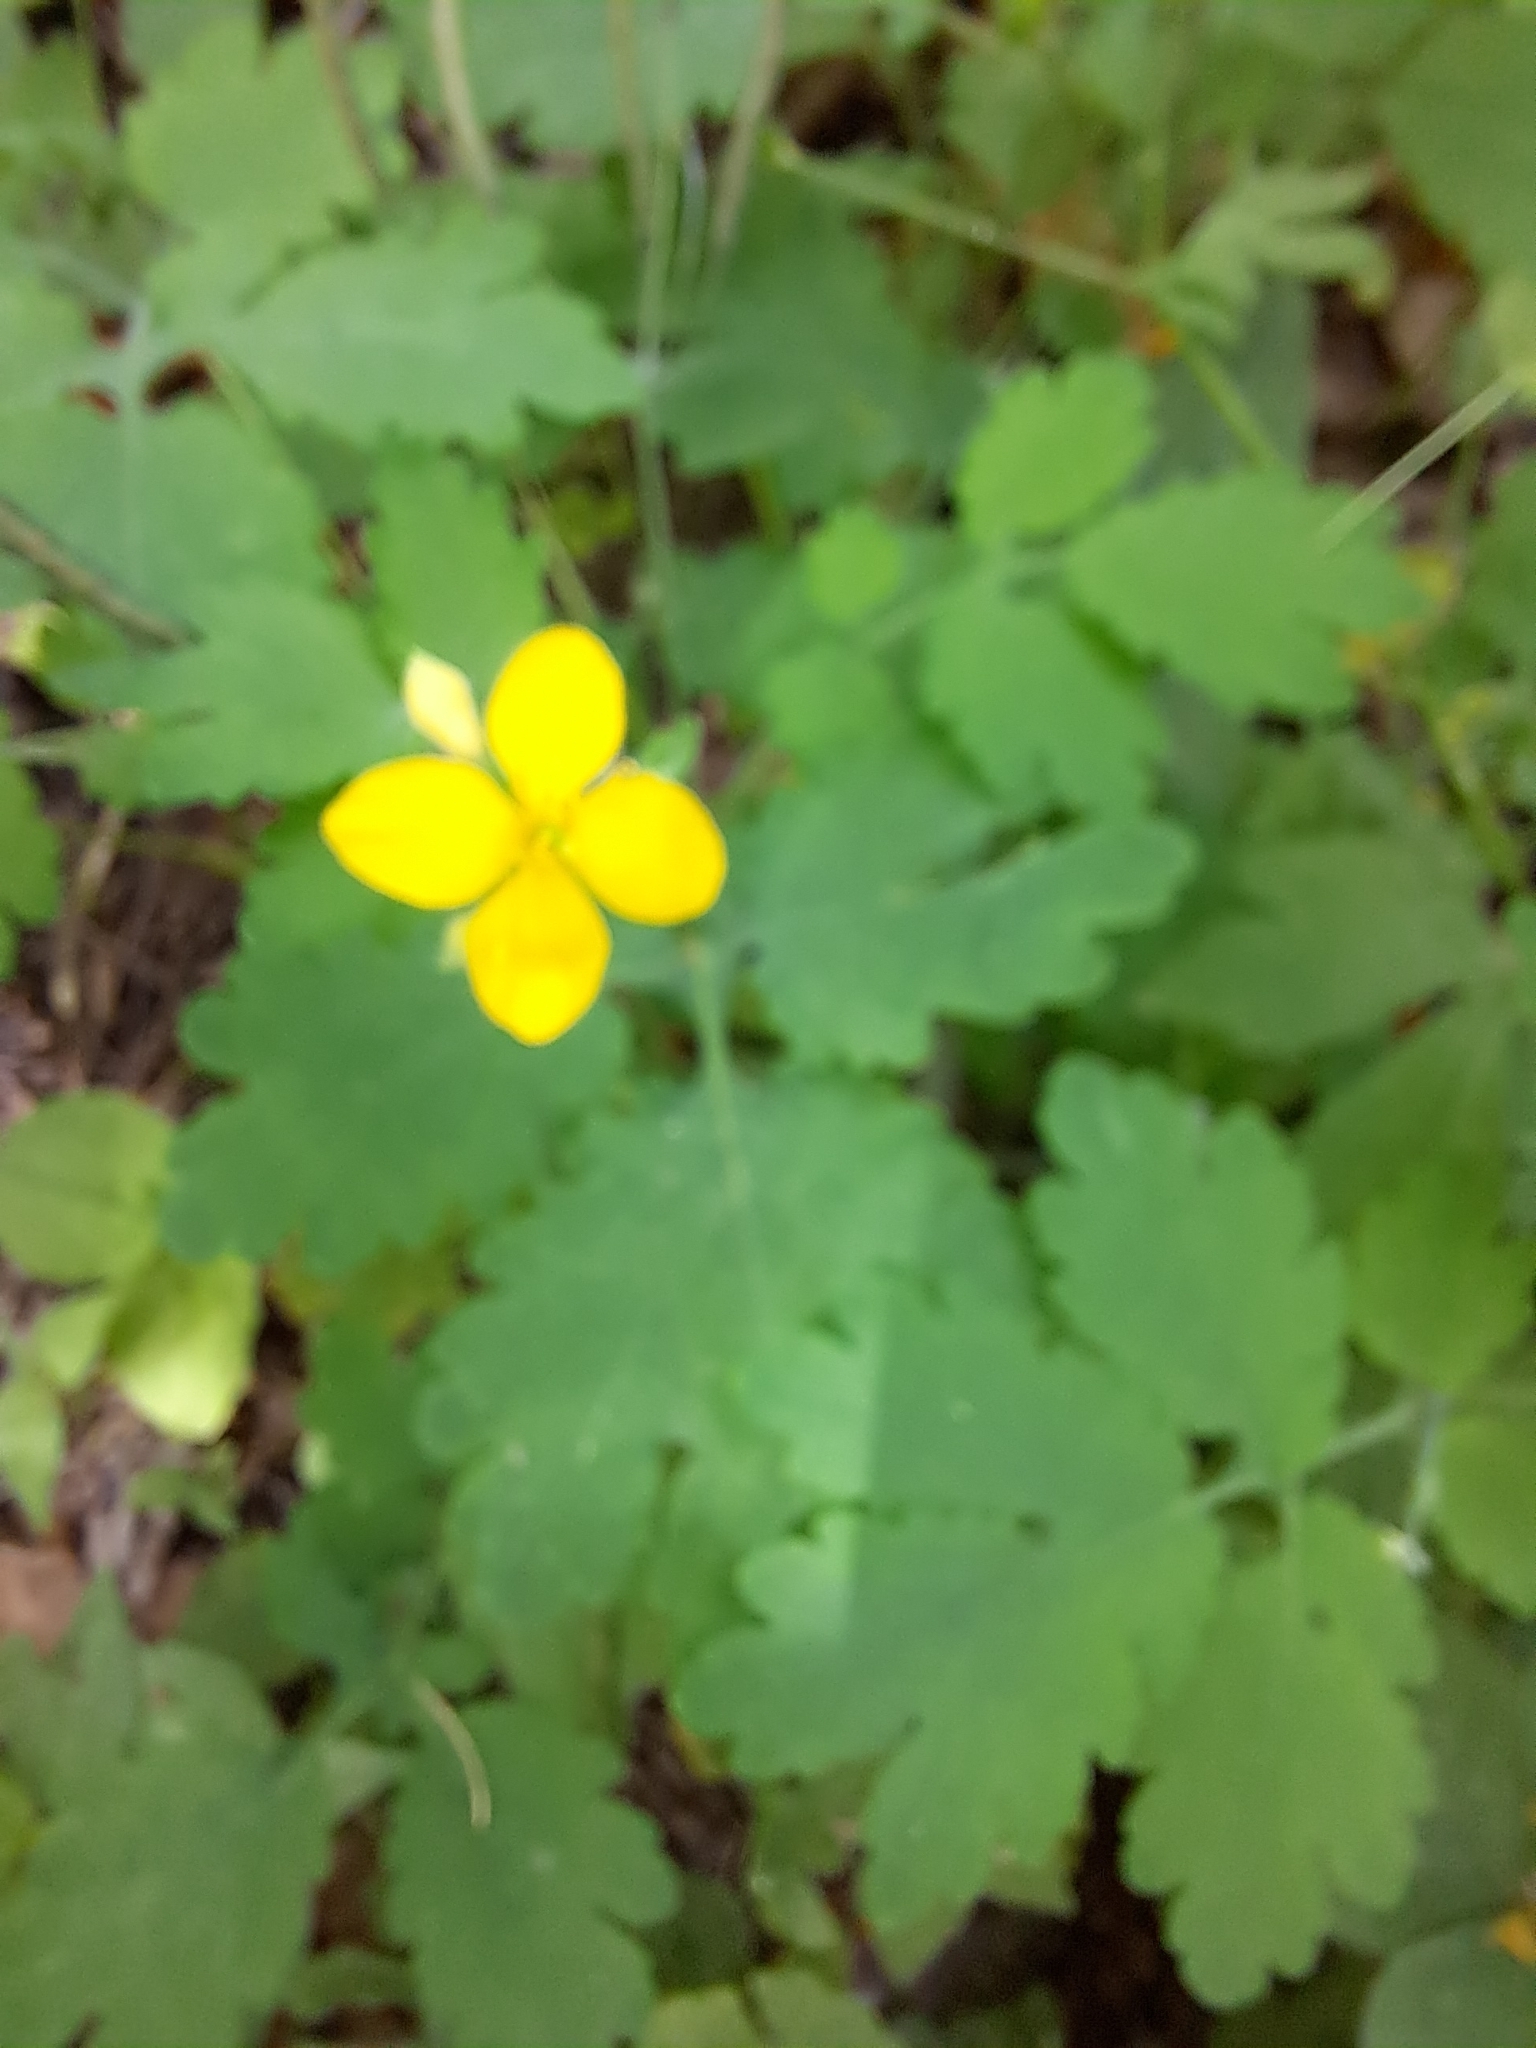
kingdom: Plantae
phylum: Tracheophyta
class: Magnoliopsida
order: Ranunculales
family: Papaveraceae
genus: Chelidonium
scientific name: Chelidonium majus
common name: Greater celandine
